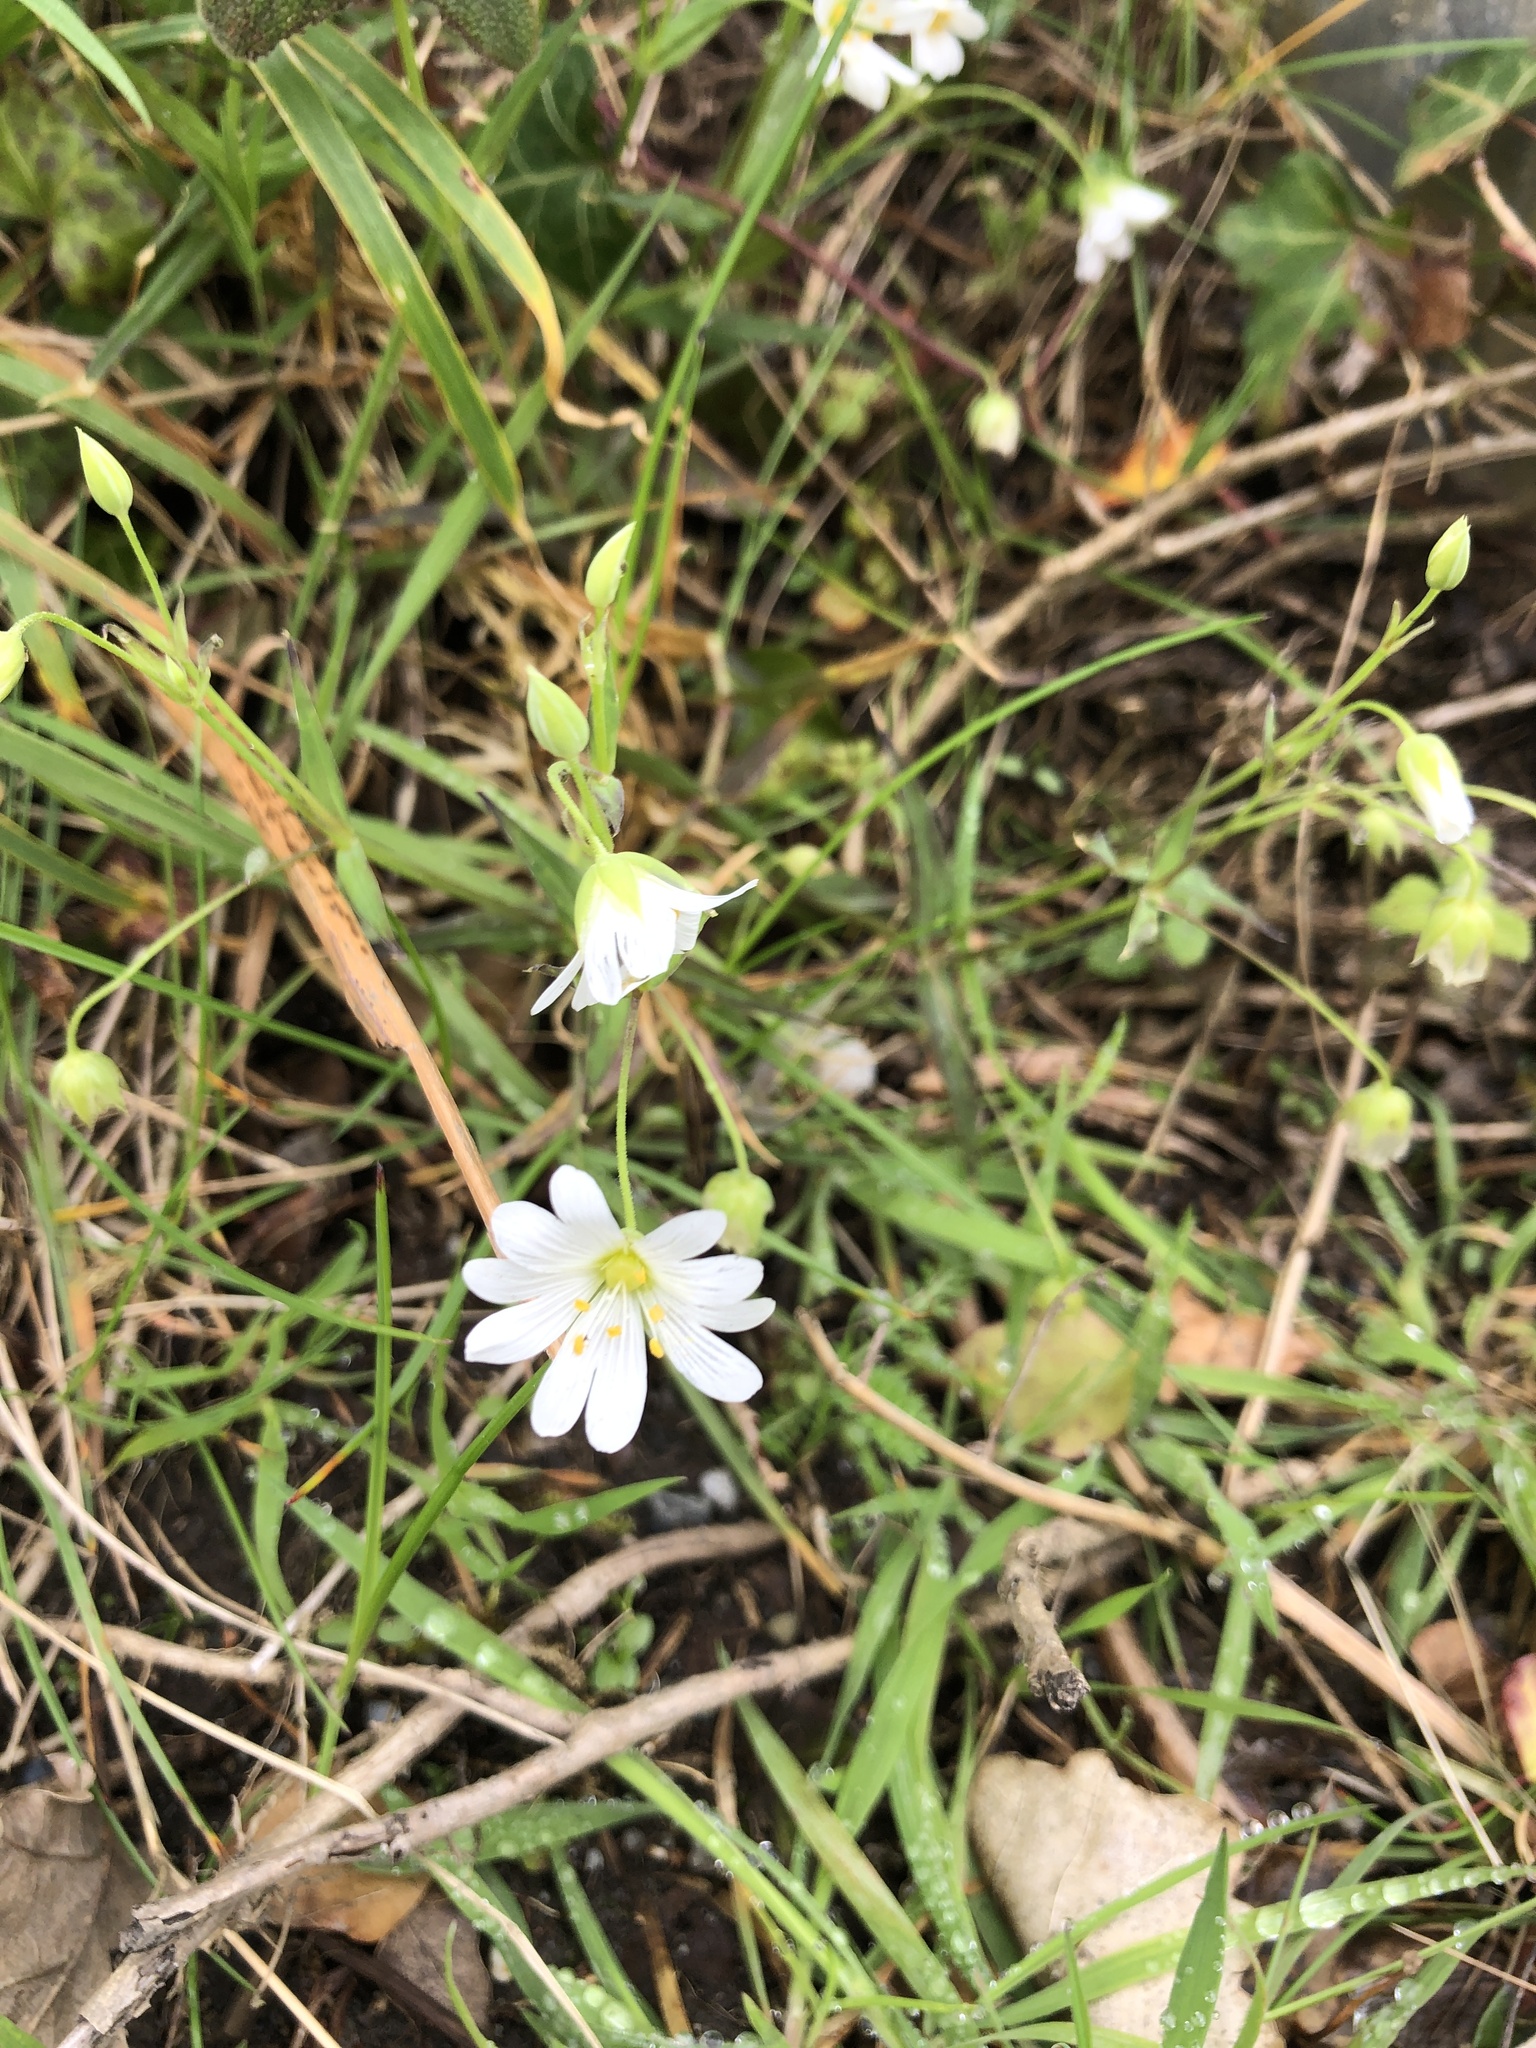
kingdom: Plantae
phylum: Tracheophyta
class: Magnoliopsida
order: Caryophyllales
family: Caryophyllaceae
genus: Rabelera
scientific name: Rabelera holostea
